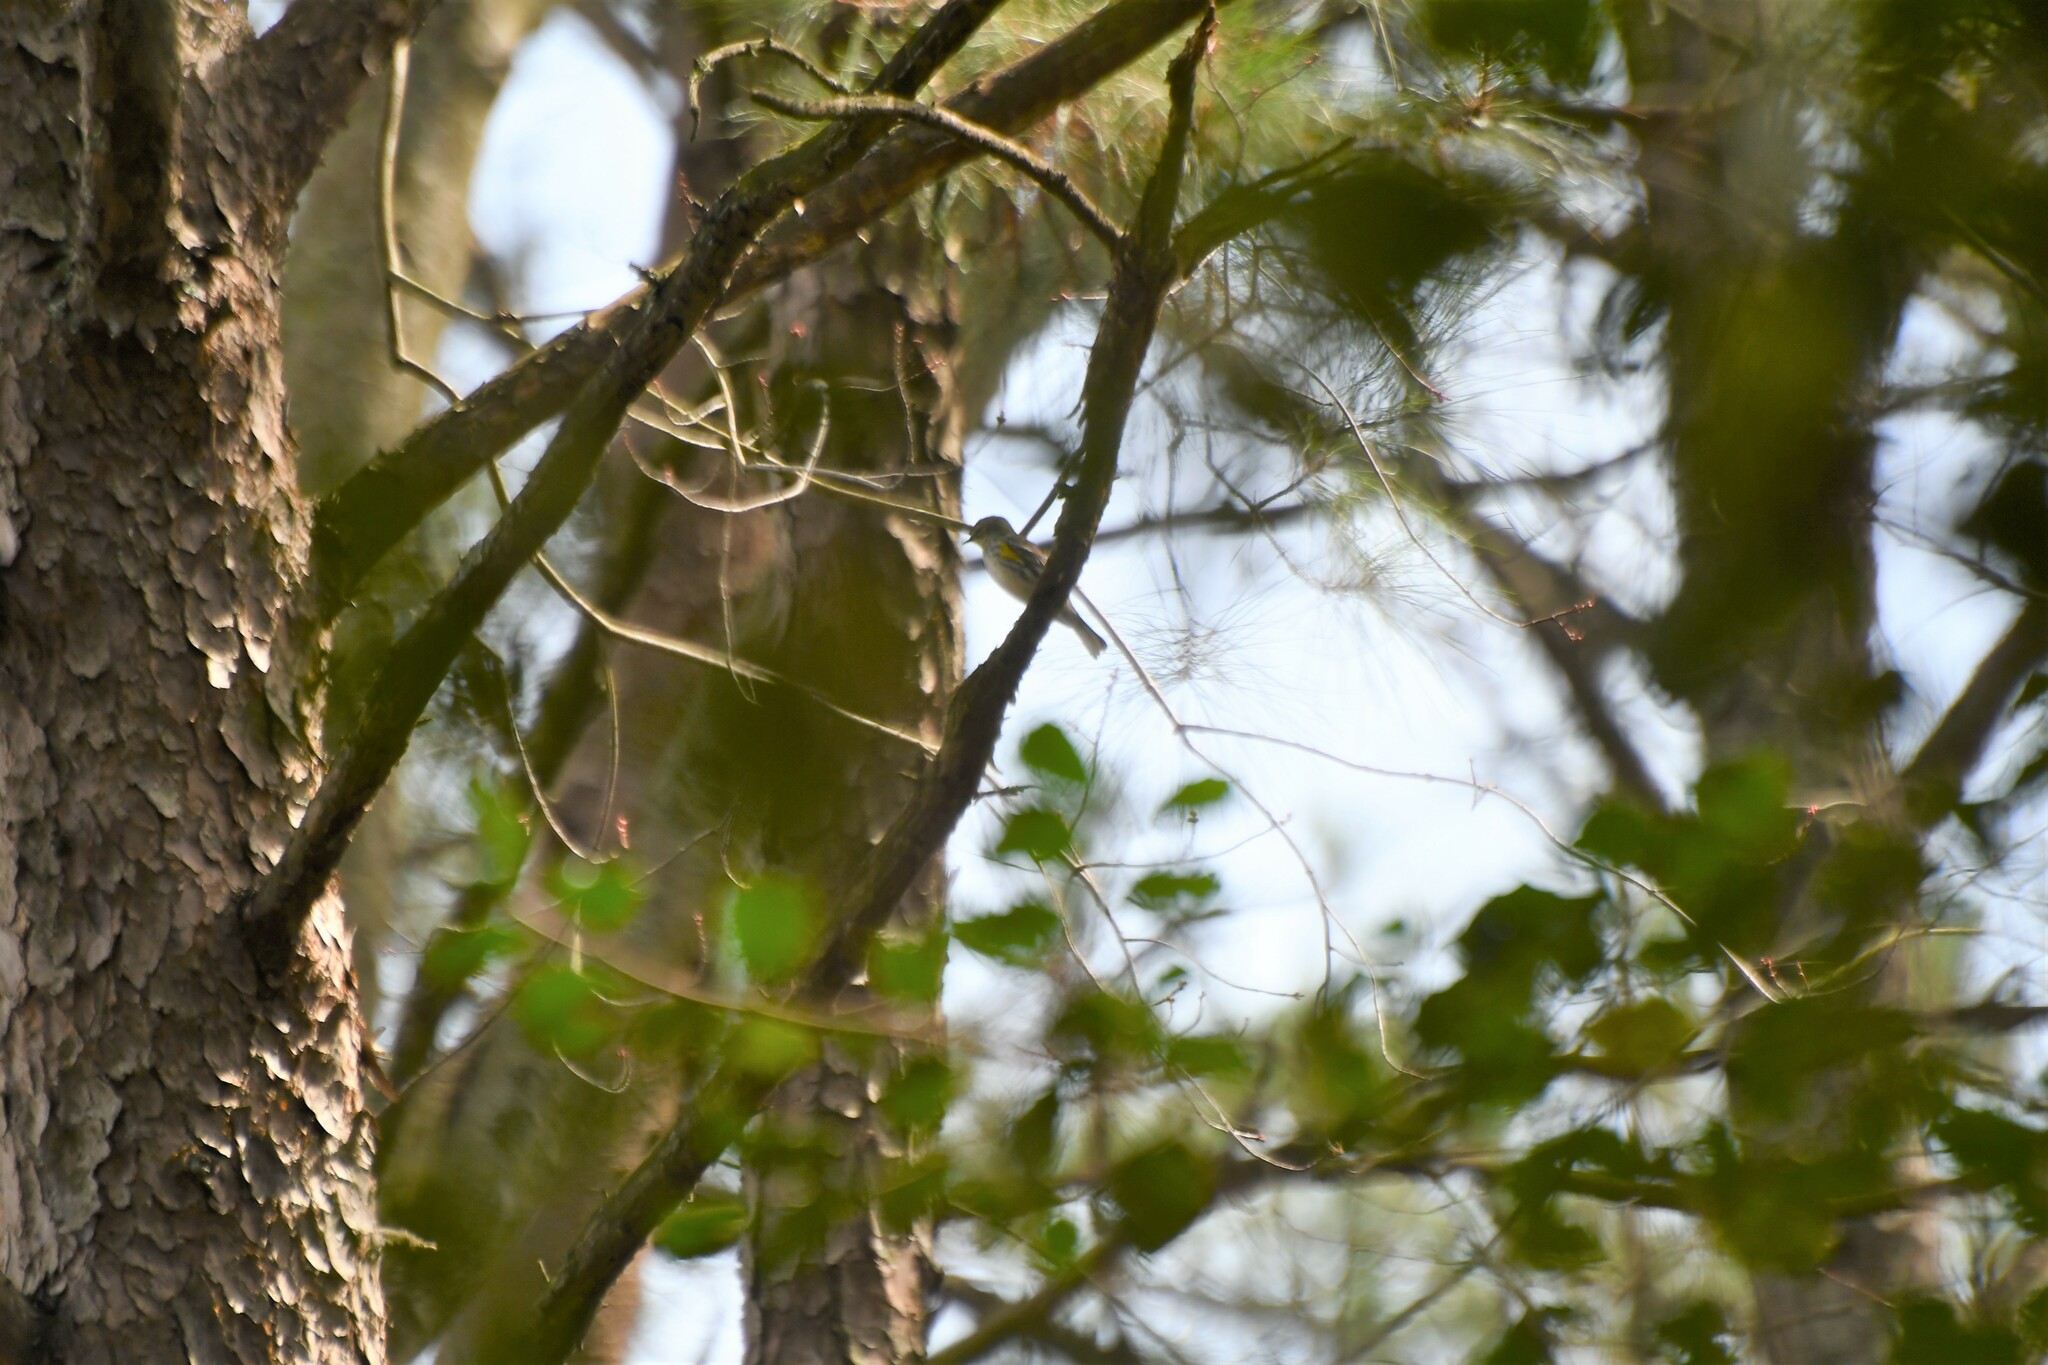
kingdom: Animalia
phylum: Chordata
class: Aves
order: Passeriformes
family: Parulidae
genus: Setophaga
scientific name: Setophaga coronata
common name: Myrtle warbler
